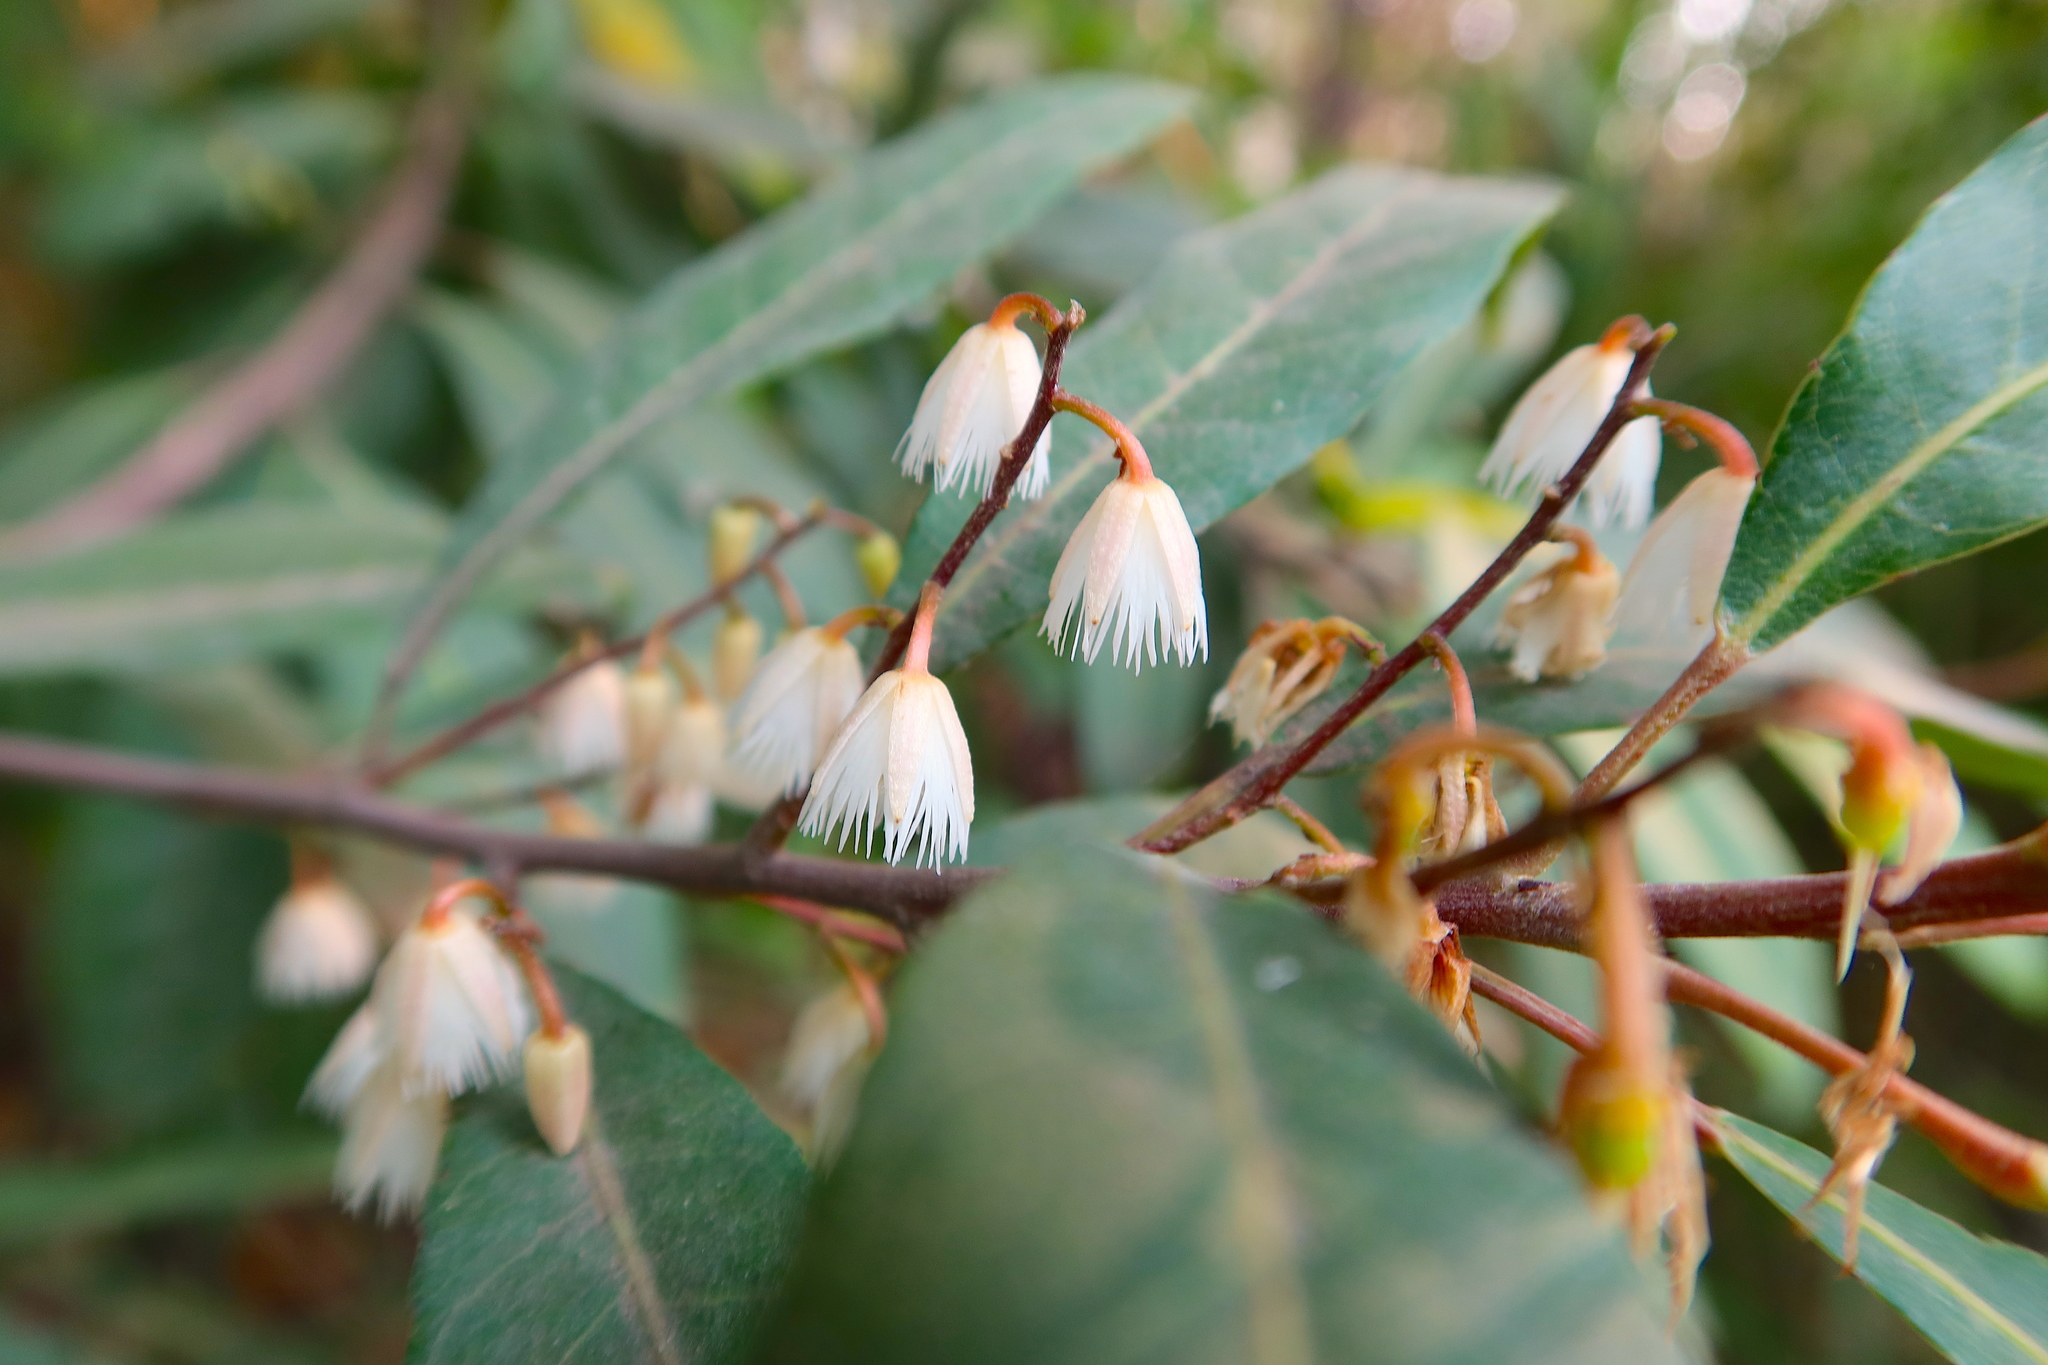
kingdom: Plantae
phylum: Tracheophyta
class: Magnoliopsida
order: Oxalidales
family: Elaeocarpaceae
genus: Elaeocarpus
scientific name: Elaeocarpus reticulatus
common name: Ash quandong
